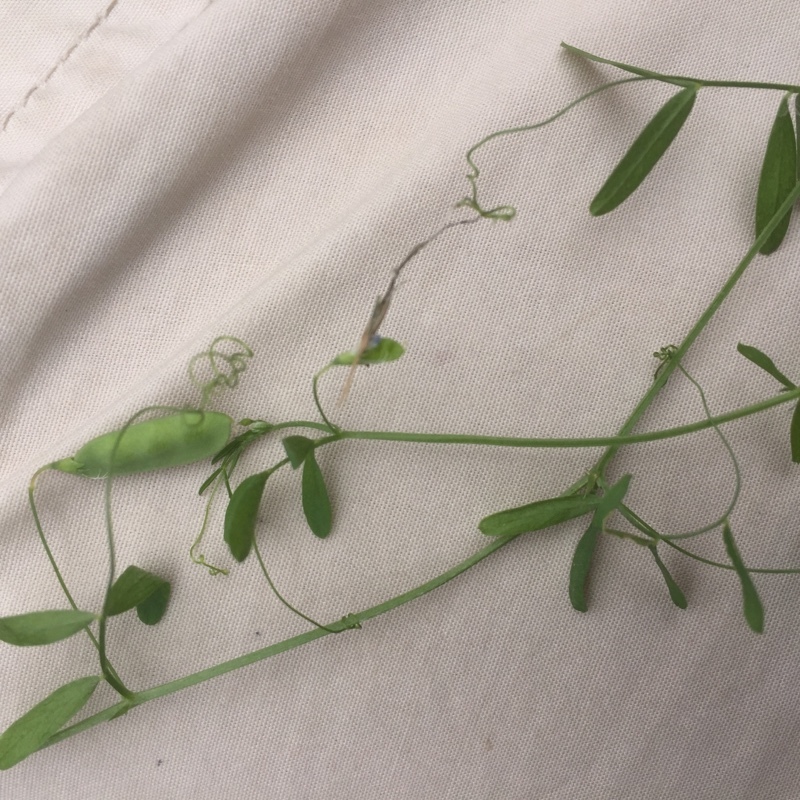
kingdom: Plantae
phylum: Tracheophyta
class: Magnoliopsida
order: Fabales
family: Fabaceae
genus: Vicia
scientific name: Vicia tetrasperma
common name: Smooth tare
